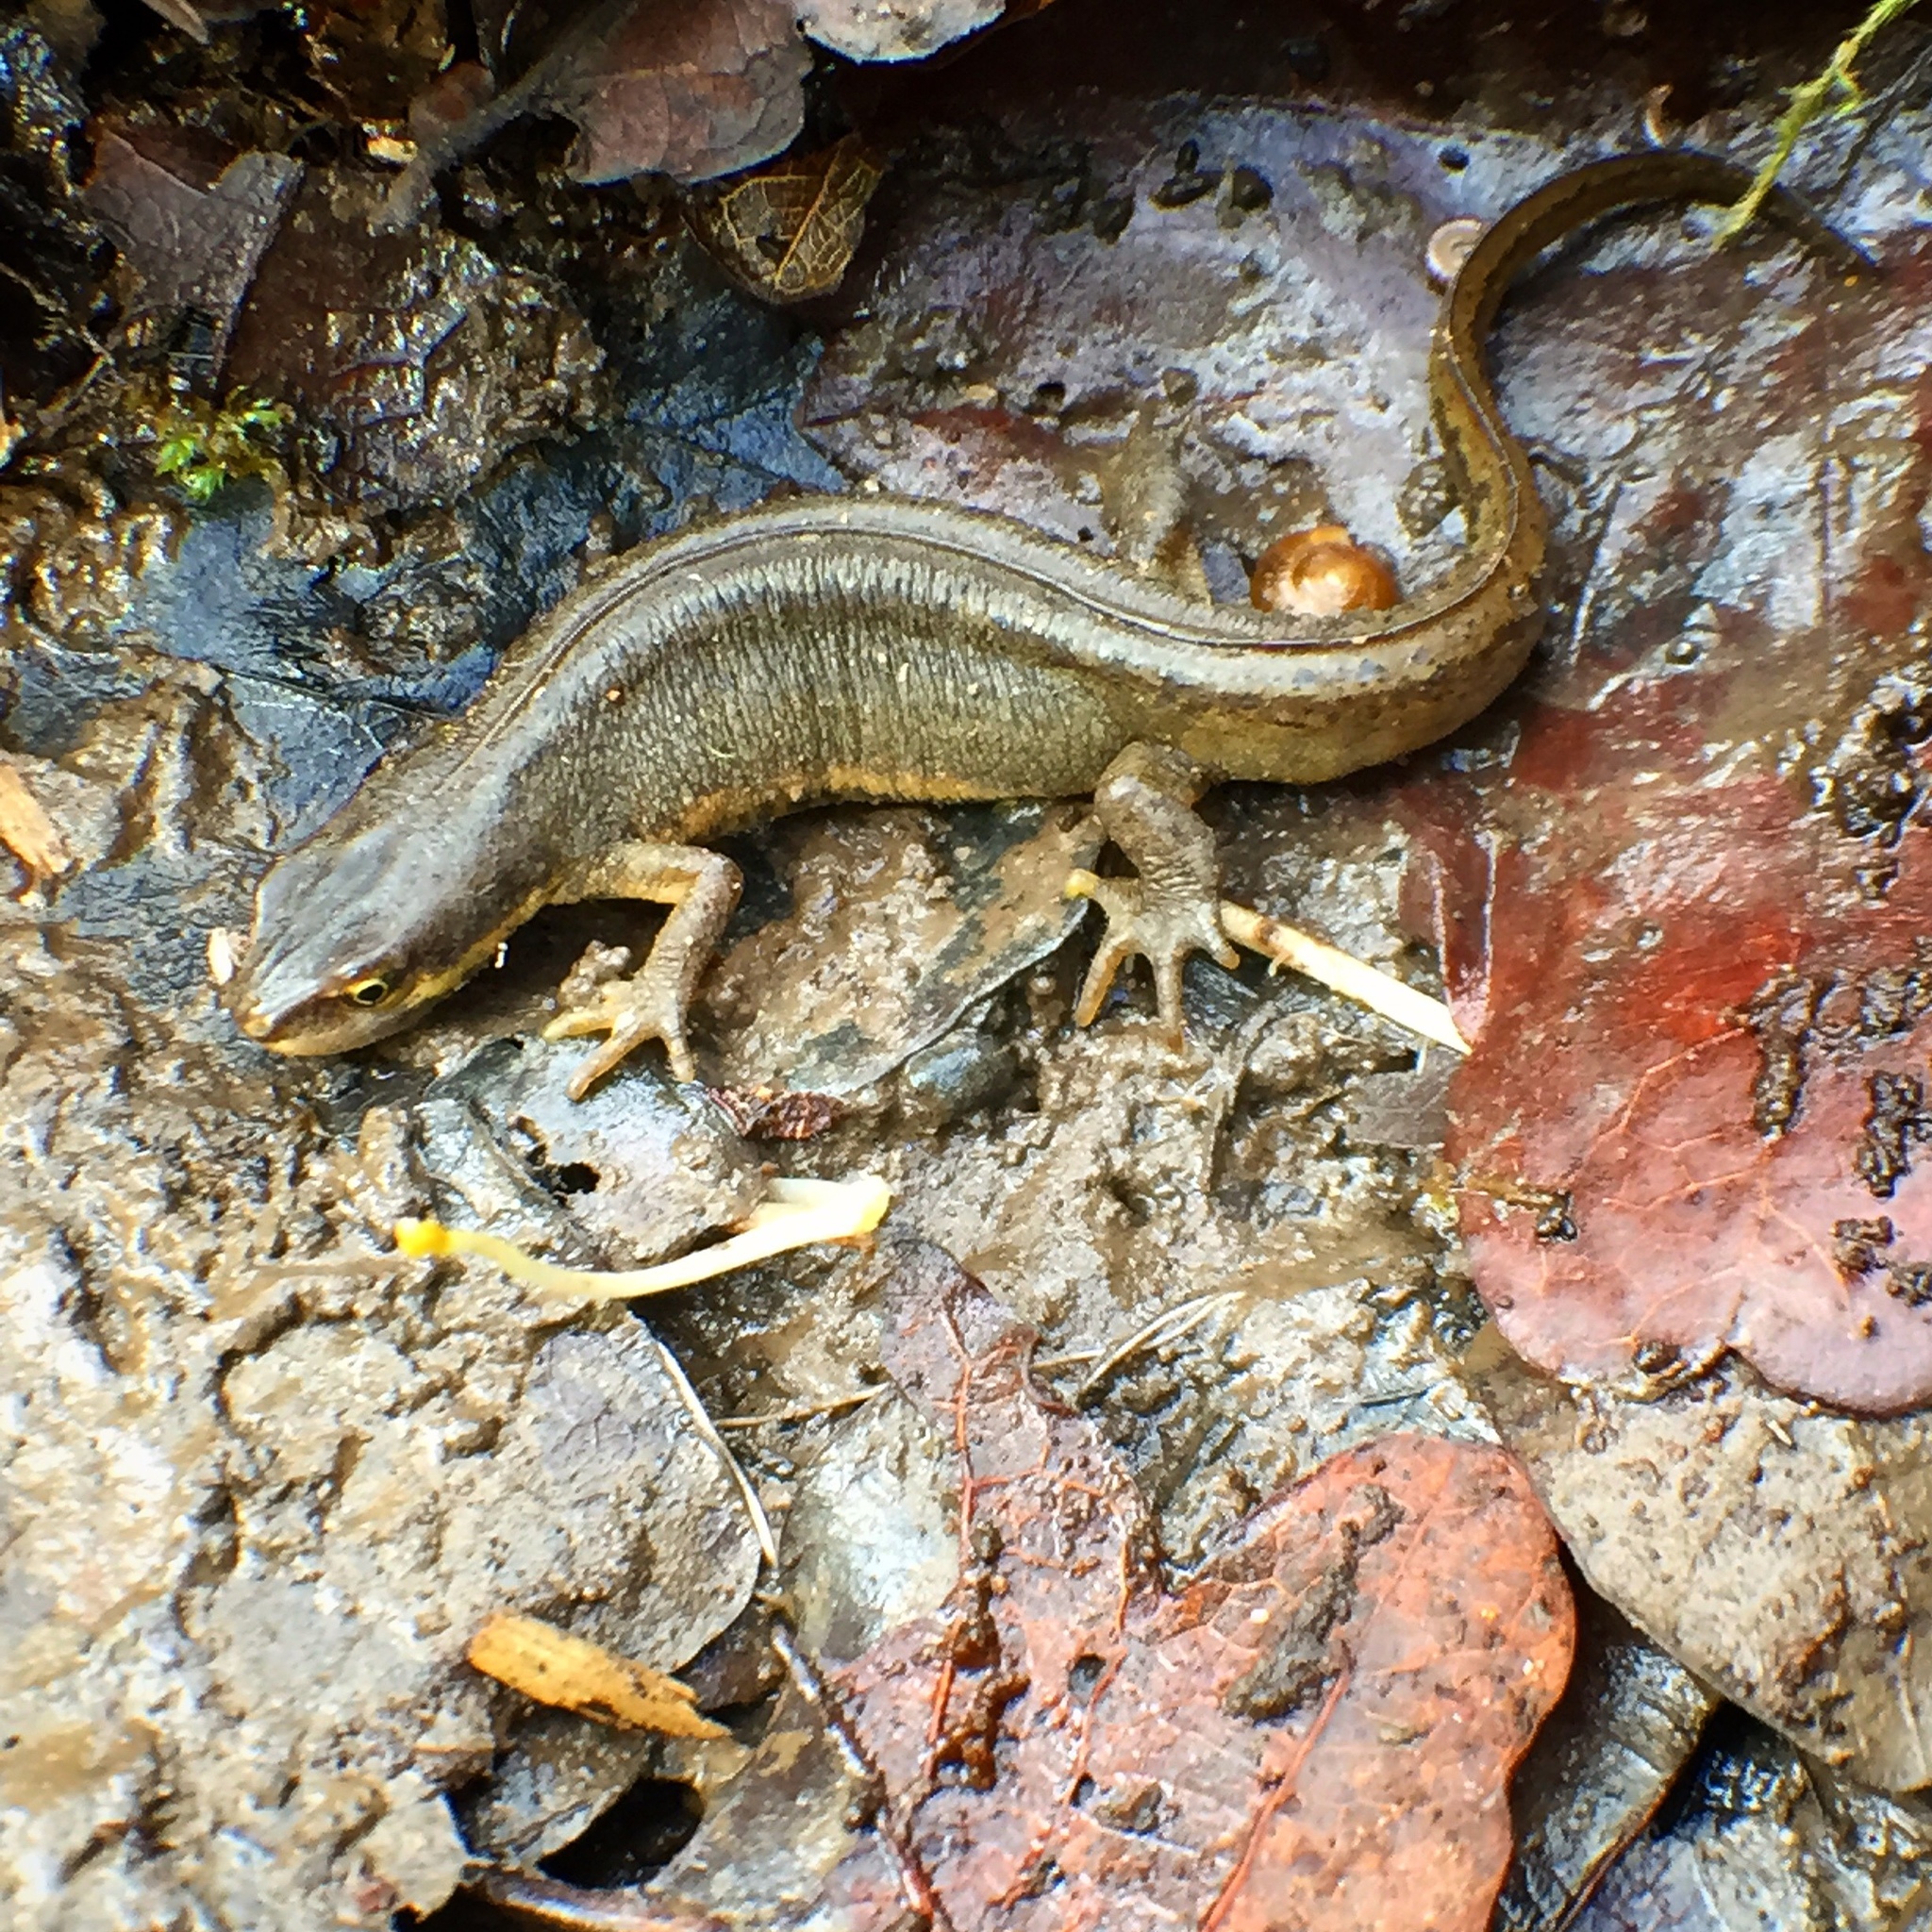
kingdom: Animalia
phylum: Chordata
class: Amphibia
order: Caudata
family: Salamandridae
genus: Lissotriton
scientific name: Lissotriton vulgaris
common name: Smooth newt
